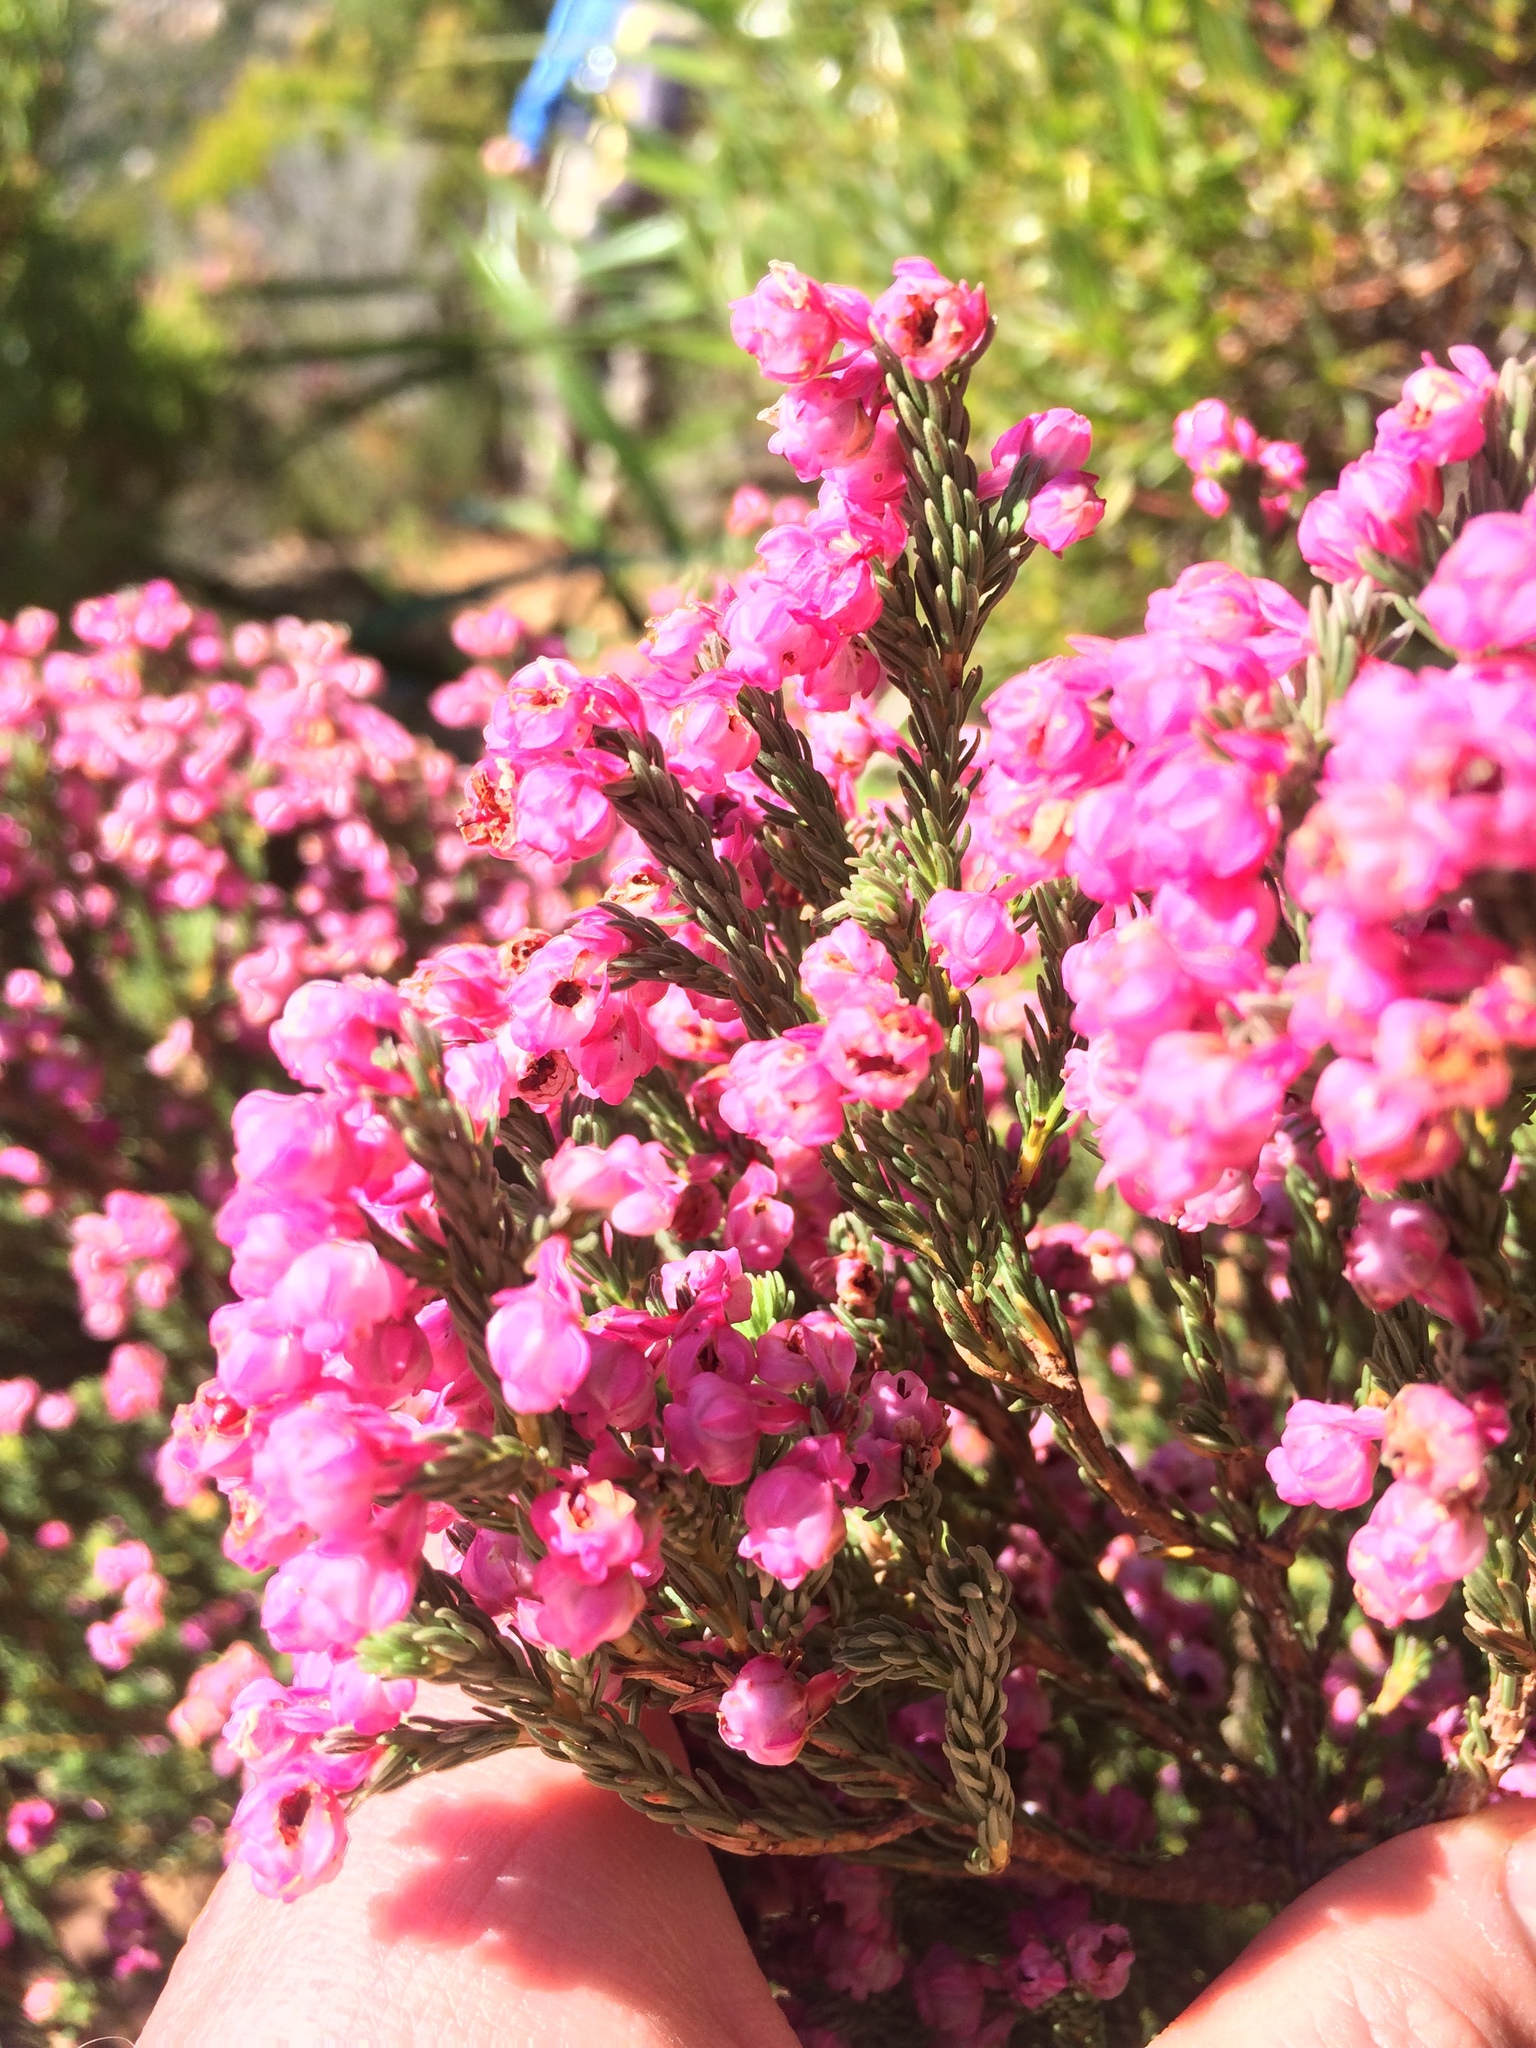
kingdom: Plantae
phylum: Tracheophyta
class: Magnoliopsida
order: Ericales
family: Ericaceae
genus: Erica
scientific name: Erica baccans
